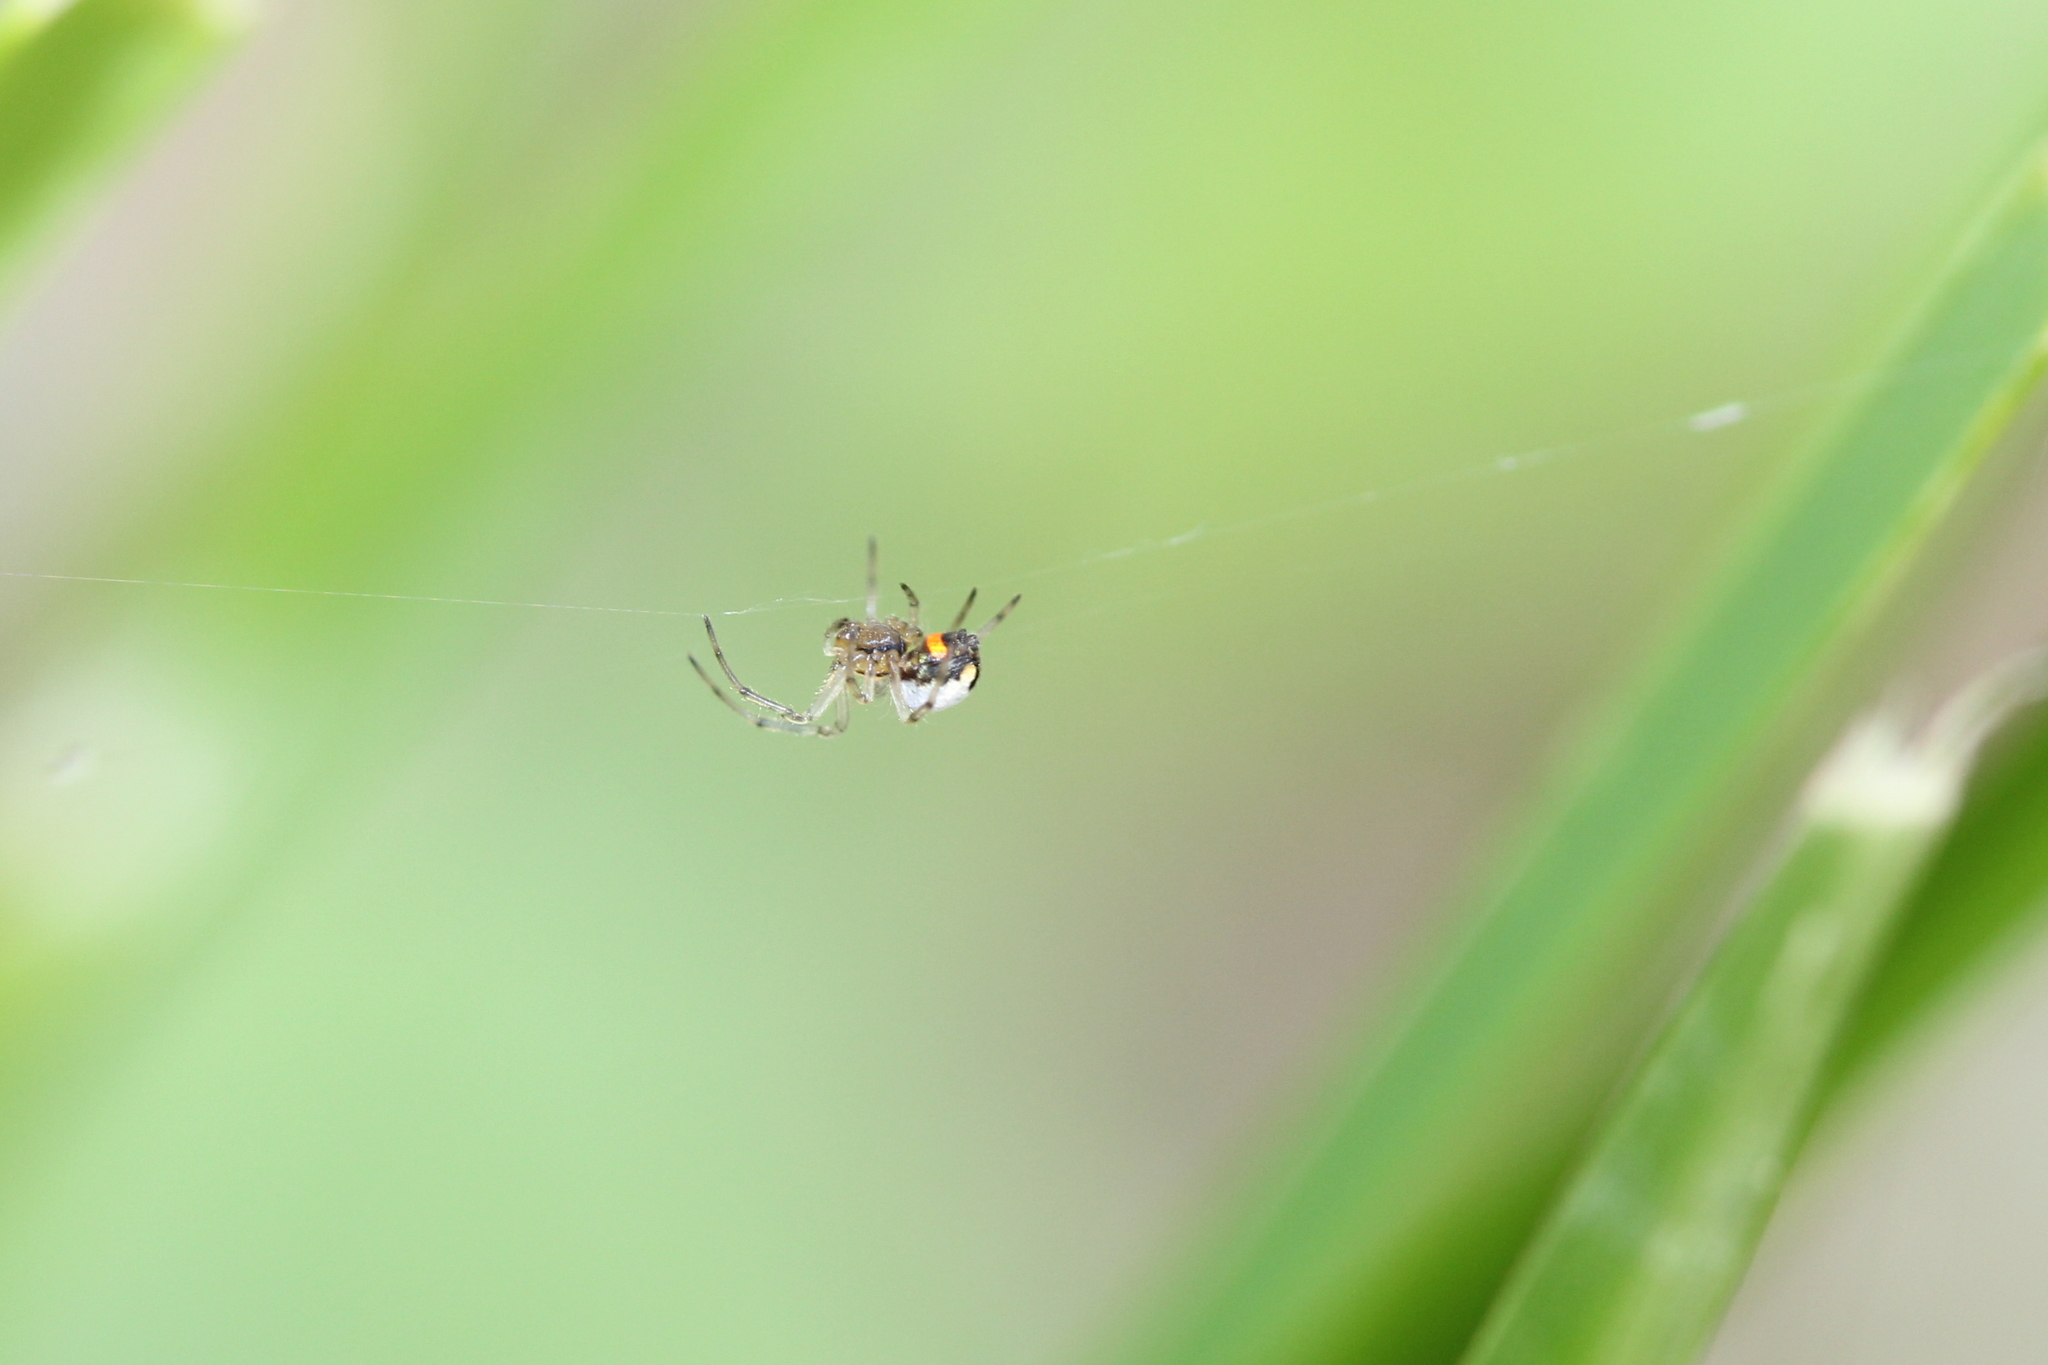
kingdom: Animalia
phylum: Arthropoda
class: Arachnida
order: Araneae
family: Tetragnathidae
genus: Leucauge
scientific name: Leucauge venusta
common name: Longjawed orb weavers
